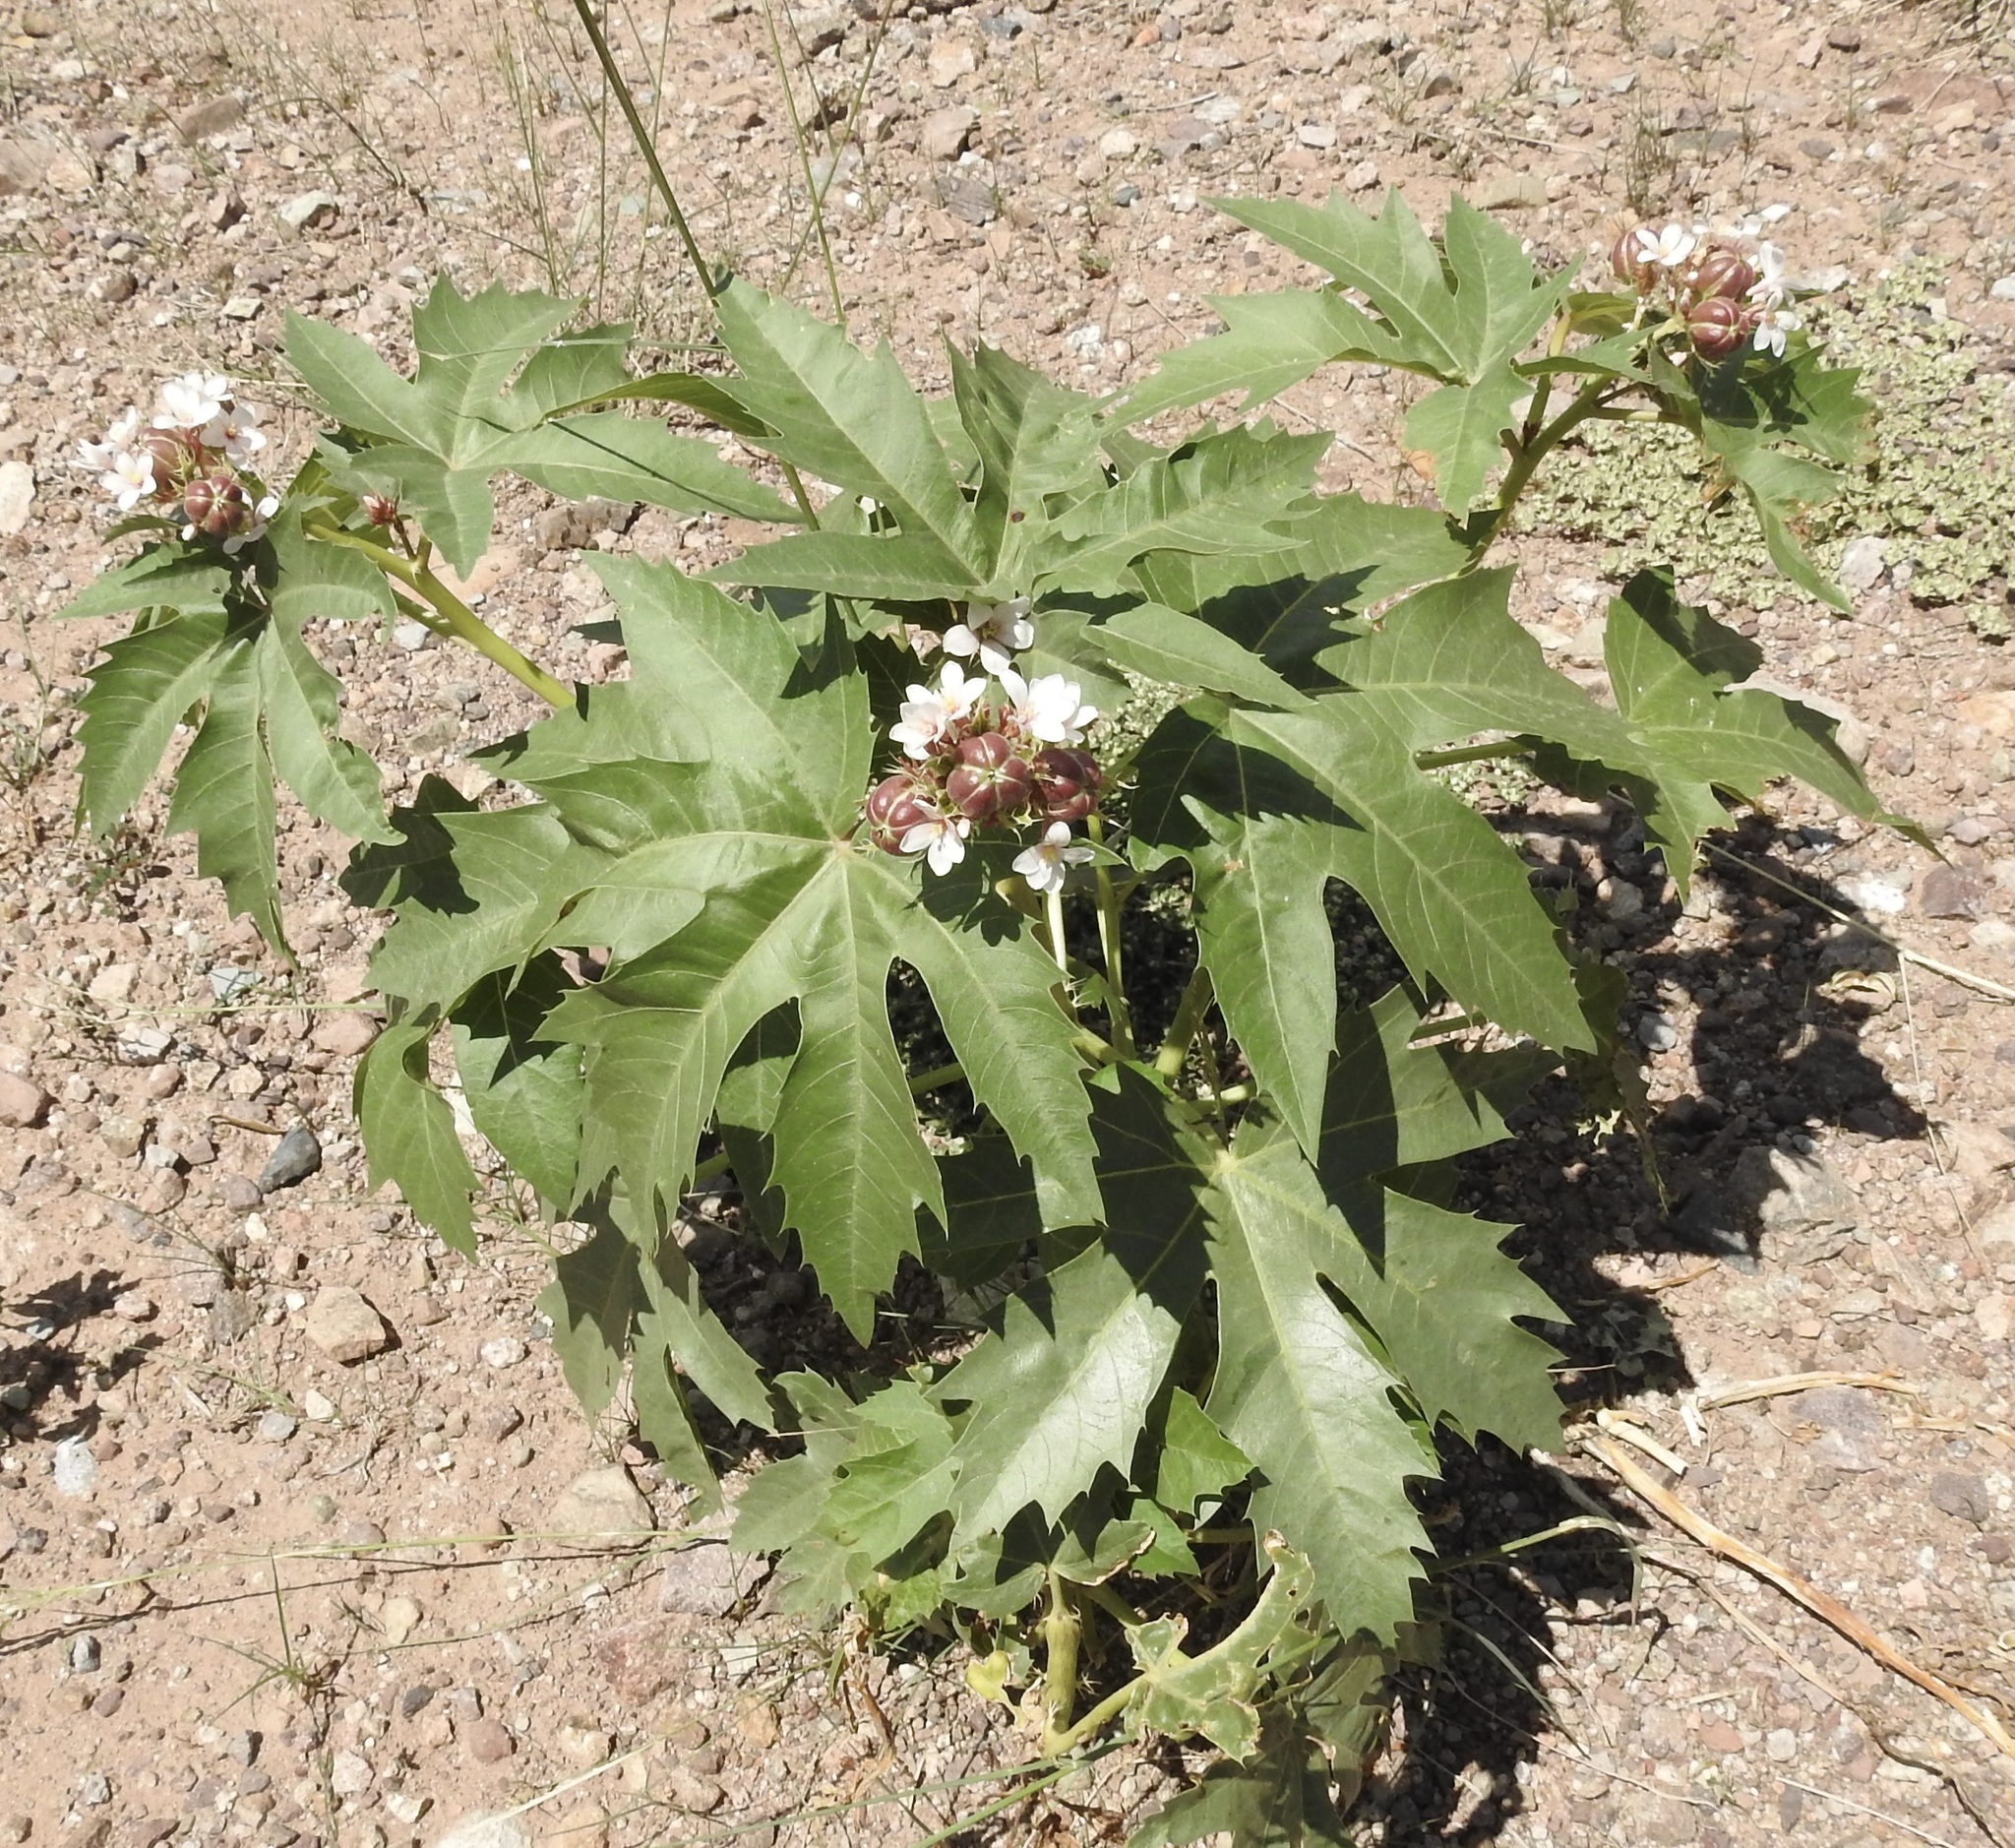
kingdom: Plantae
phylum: Tracheophyta
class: Magnoliopsida
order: Malpighiales
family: Euphorbiaceae
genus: Jatropha
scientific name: Jatropha macrorhiza
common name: Ragged nettlespurge
